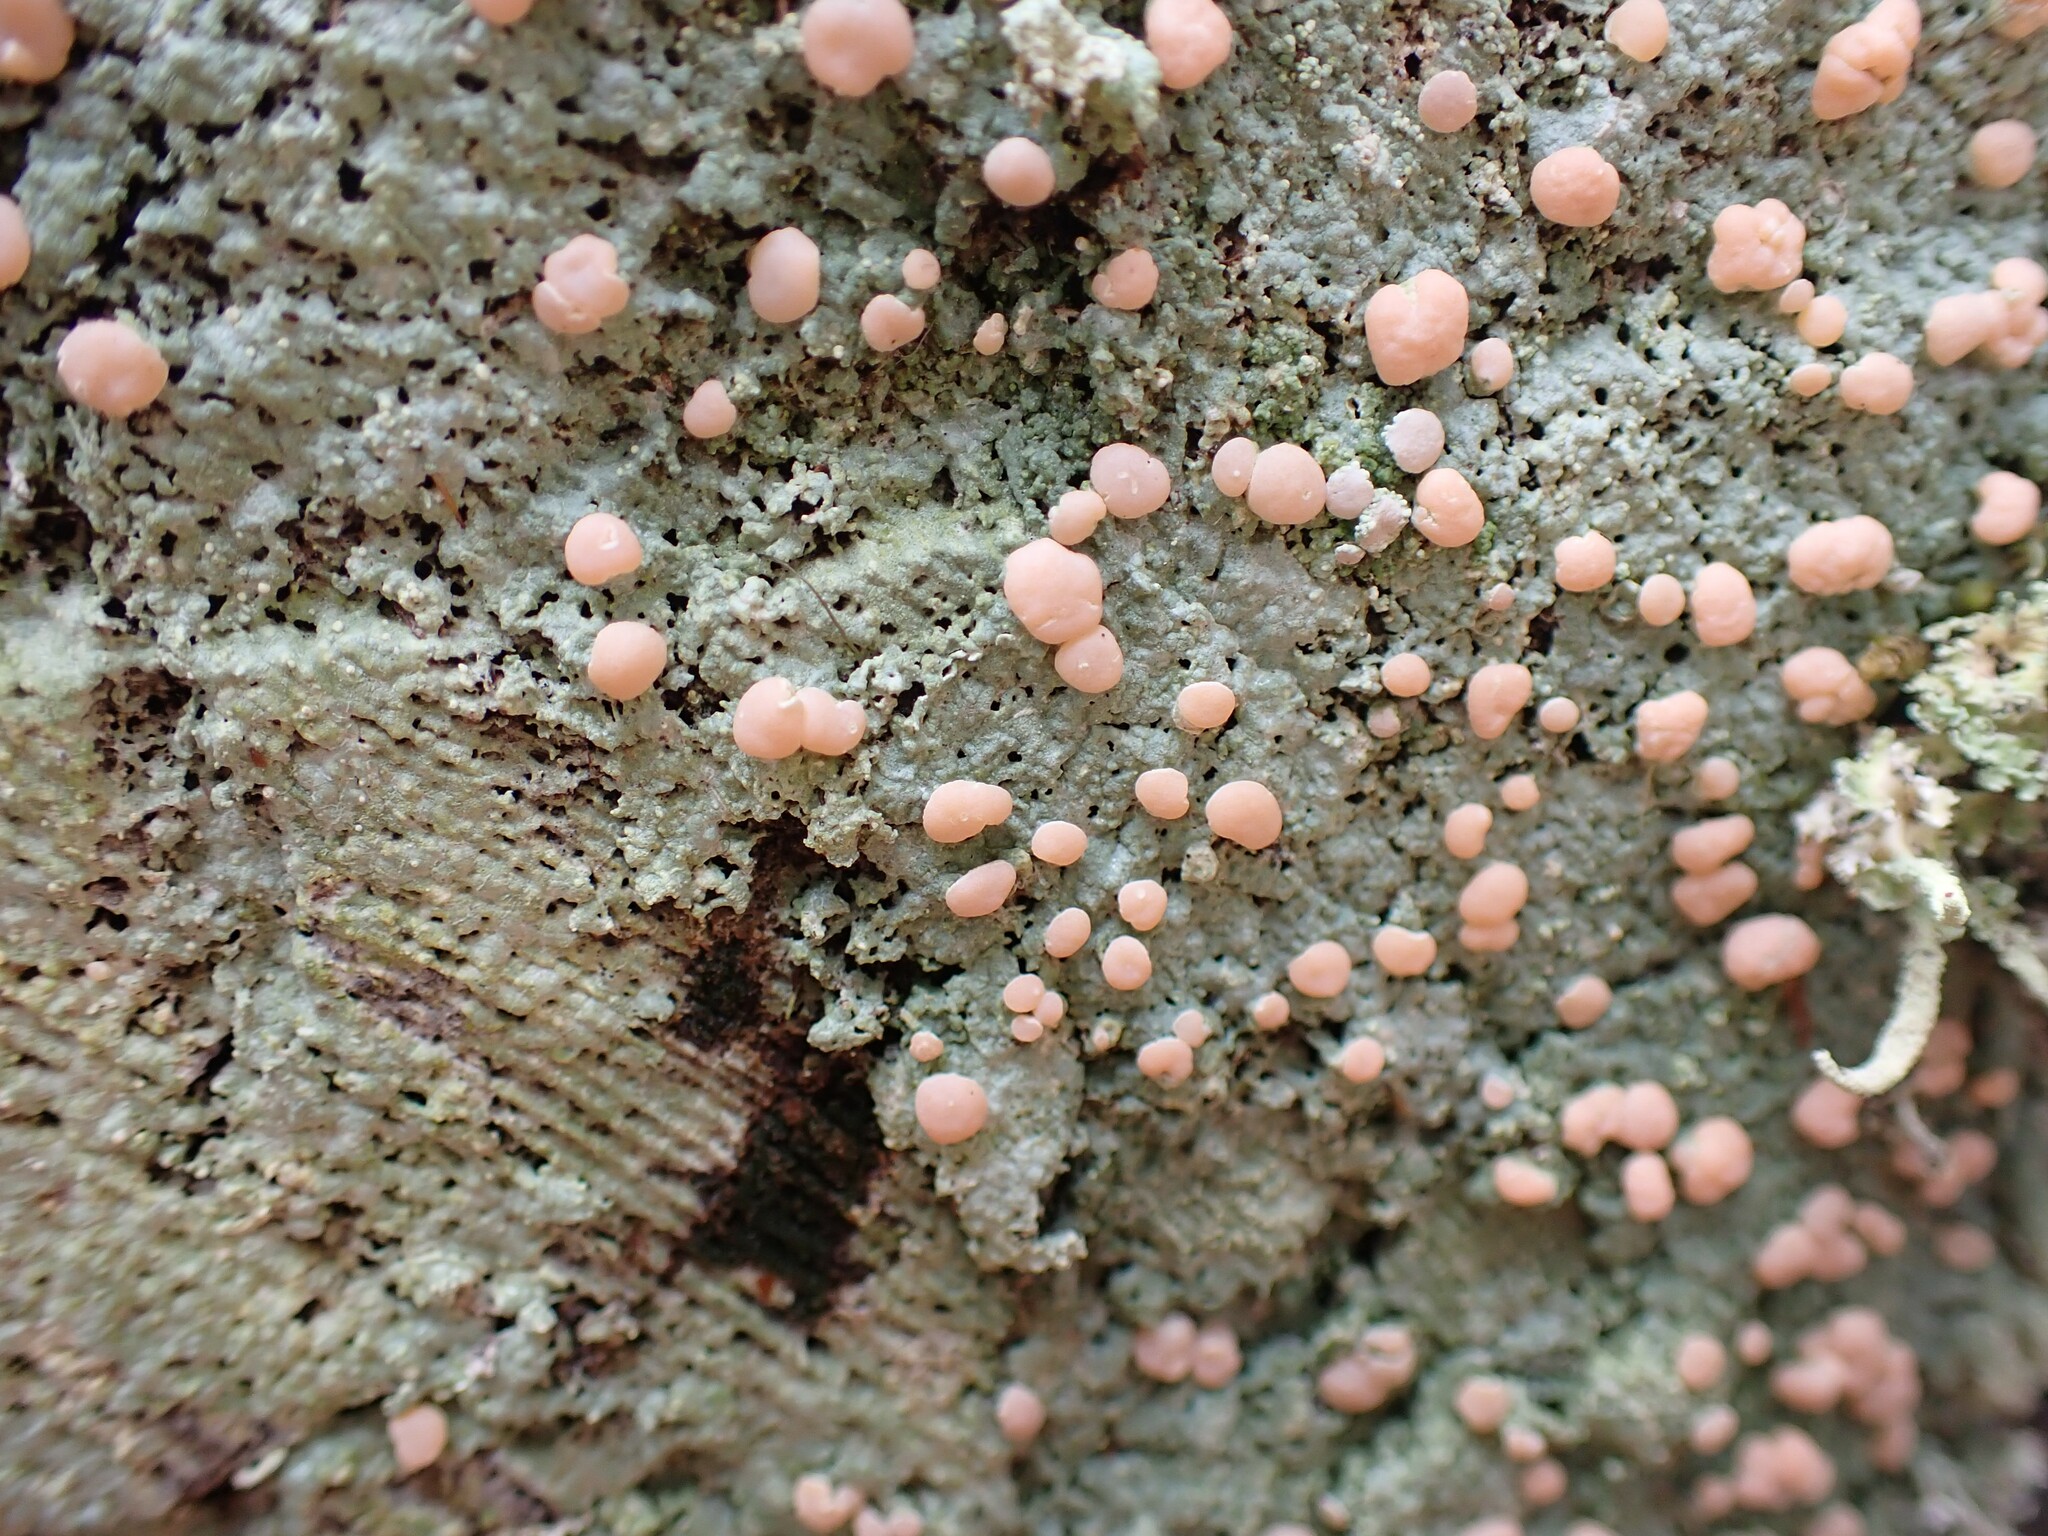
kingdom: Fungi
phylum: Ascomycota
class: Lecanoromycetes
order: Pertusariales
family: Icmadophilaceae
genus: Icmadophila
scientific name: Icmadophila ericetorum
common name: Candy lichen
